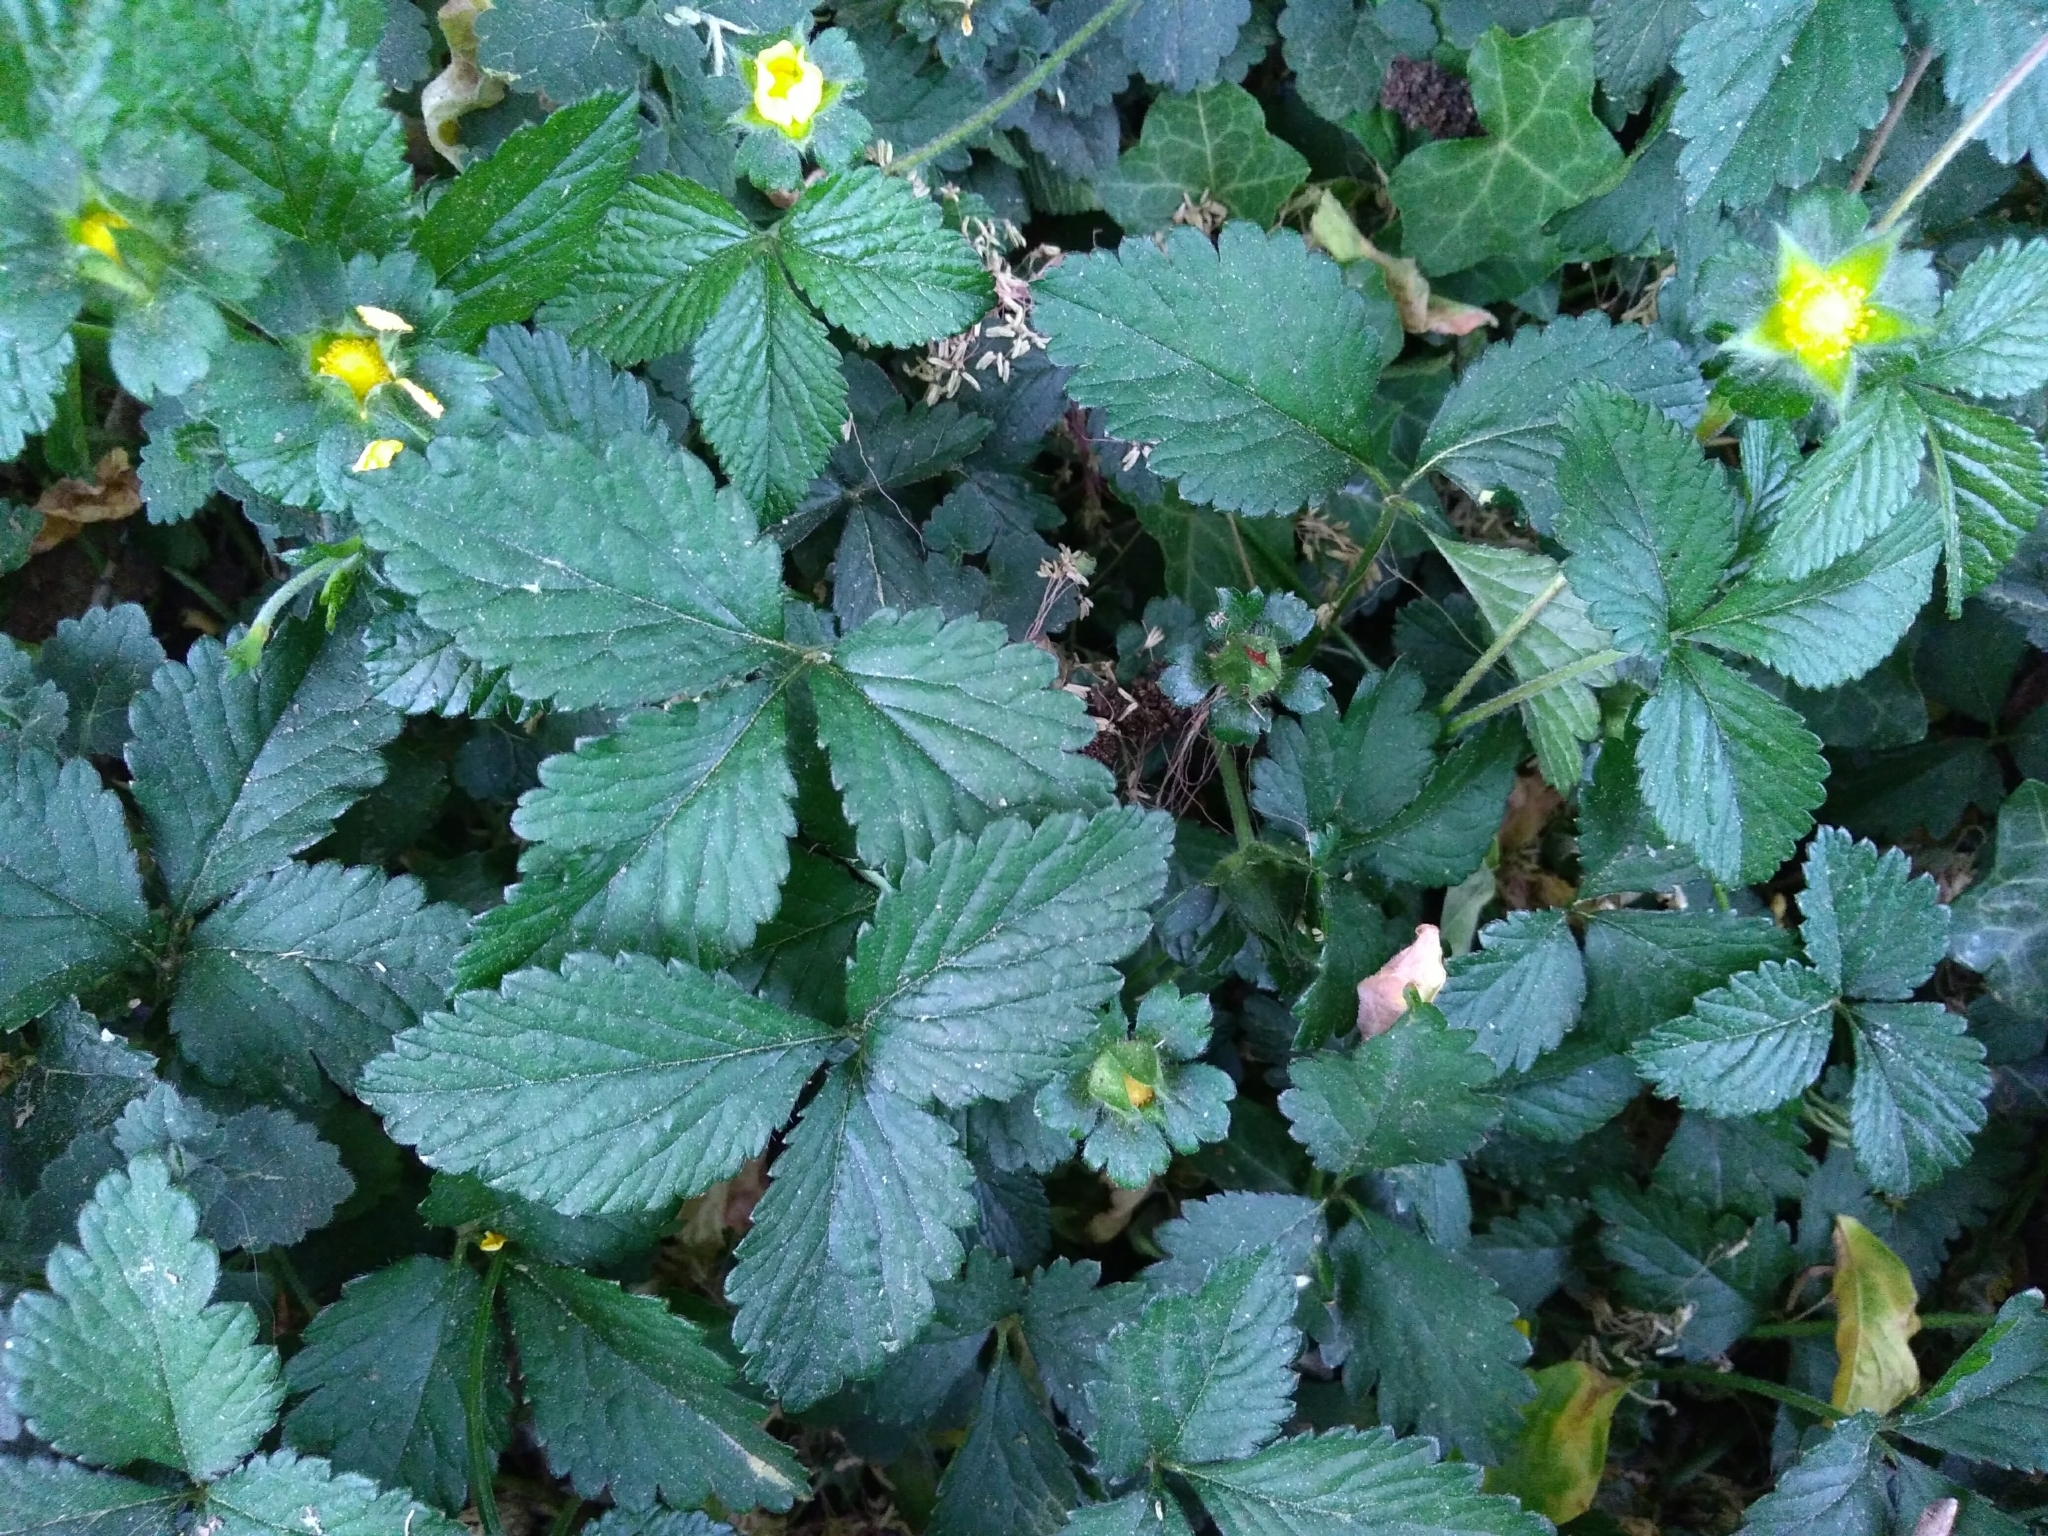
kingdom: Plantae
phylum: Tracheophyta
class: Magnoliopsida
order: Rosales
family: Rosaceae
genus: Potentilla
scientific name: Potentilla indica
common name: Yellow-flowered strawberry
